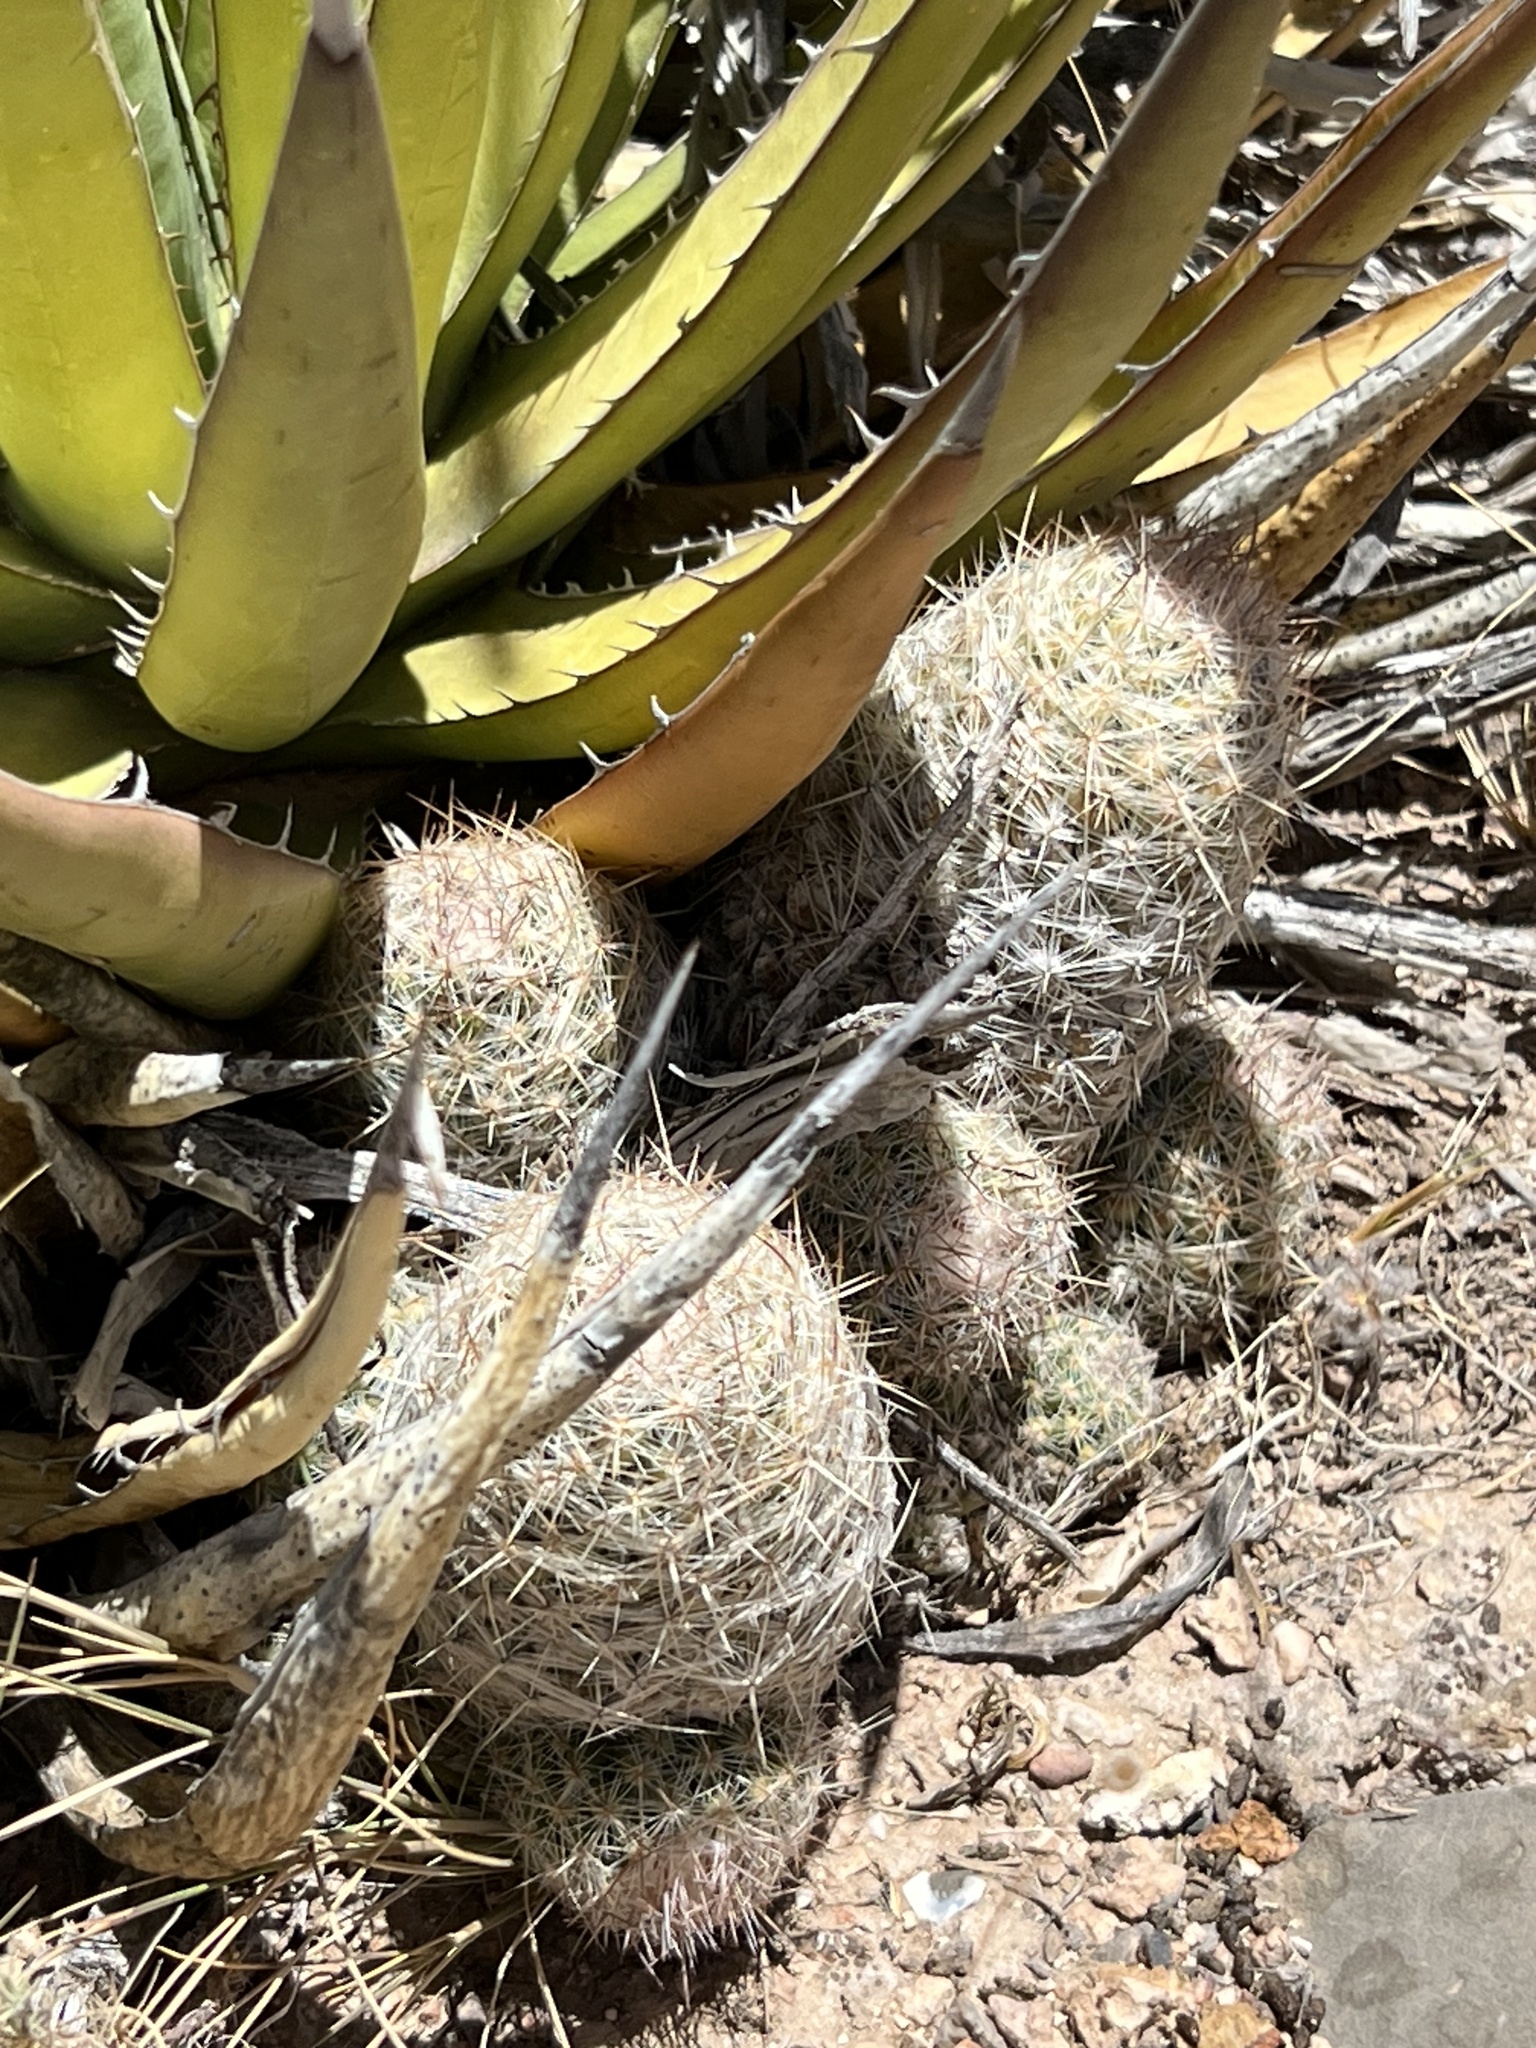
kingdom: Plantae
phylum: Tracheophyta
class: Magnoliopsida
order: Caryophyllales
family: Cactaceae
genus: Pelecyphora
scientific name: Pelecyphora tuberculosa
